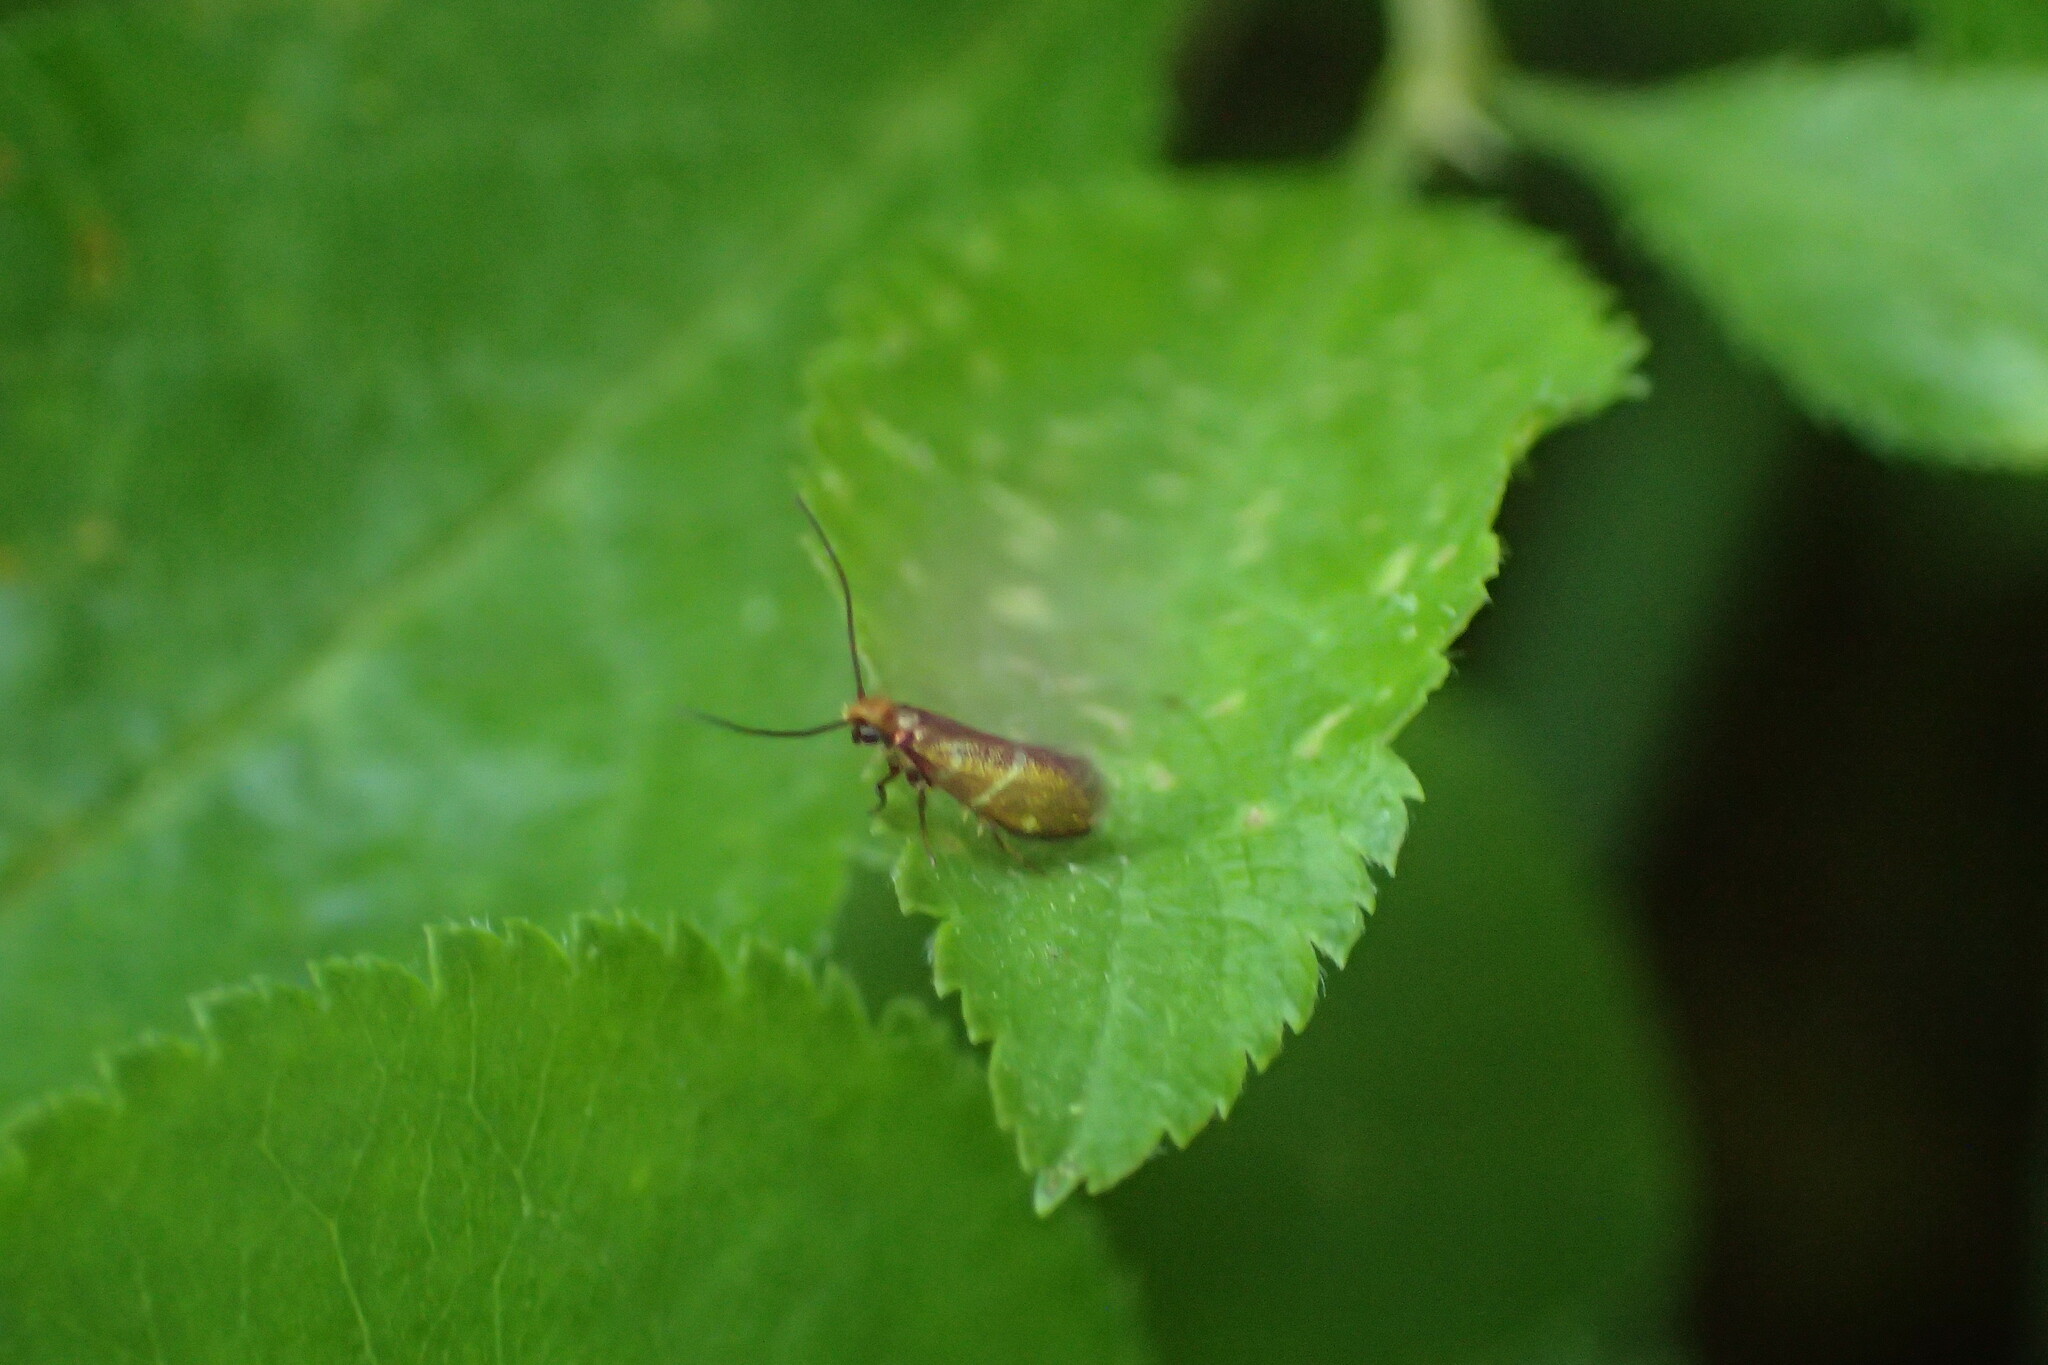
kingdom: Animalia
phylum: Arthropoda
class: Insecta
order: Lepidoptera
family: Micropterigidae
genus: Micropterix
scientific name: Micropterix aruncella
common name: White-barred gold
